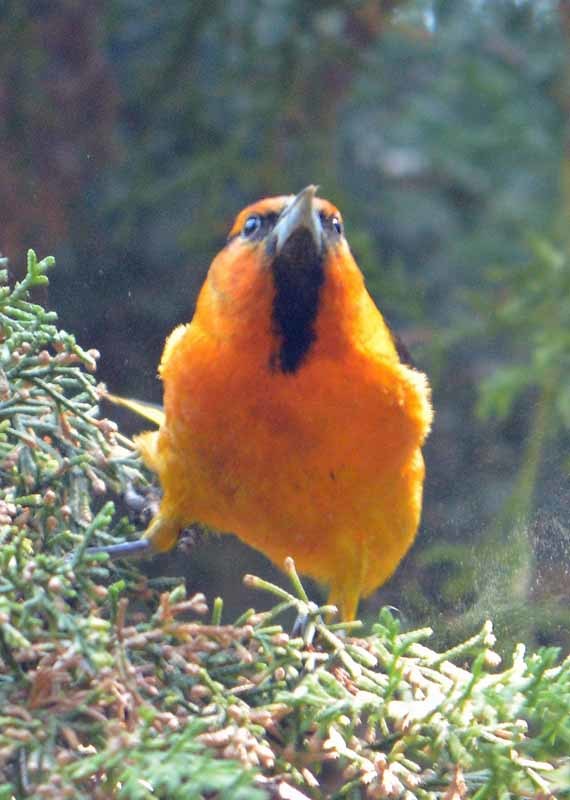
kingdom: Animalia
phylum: Chordata
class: Aves
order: Passeriformes
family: Icteridae
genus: Icterus
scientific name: Icterus bullockii
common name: Bullock's oriole
